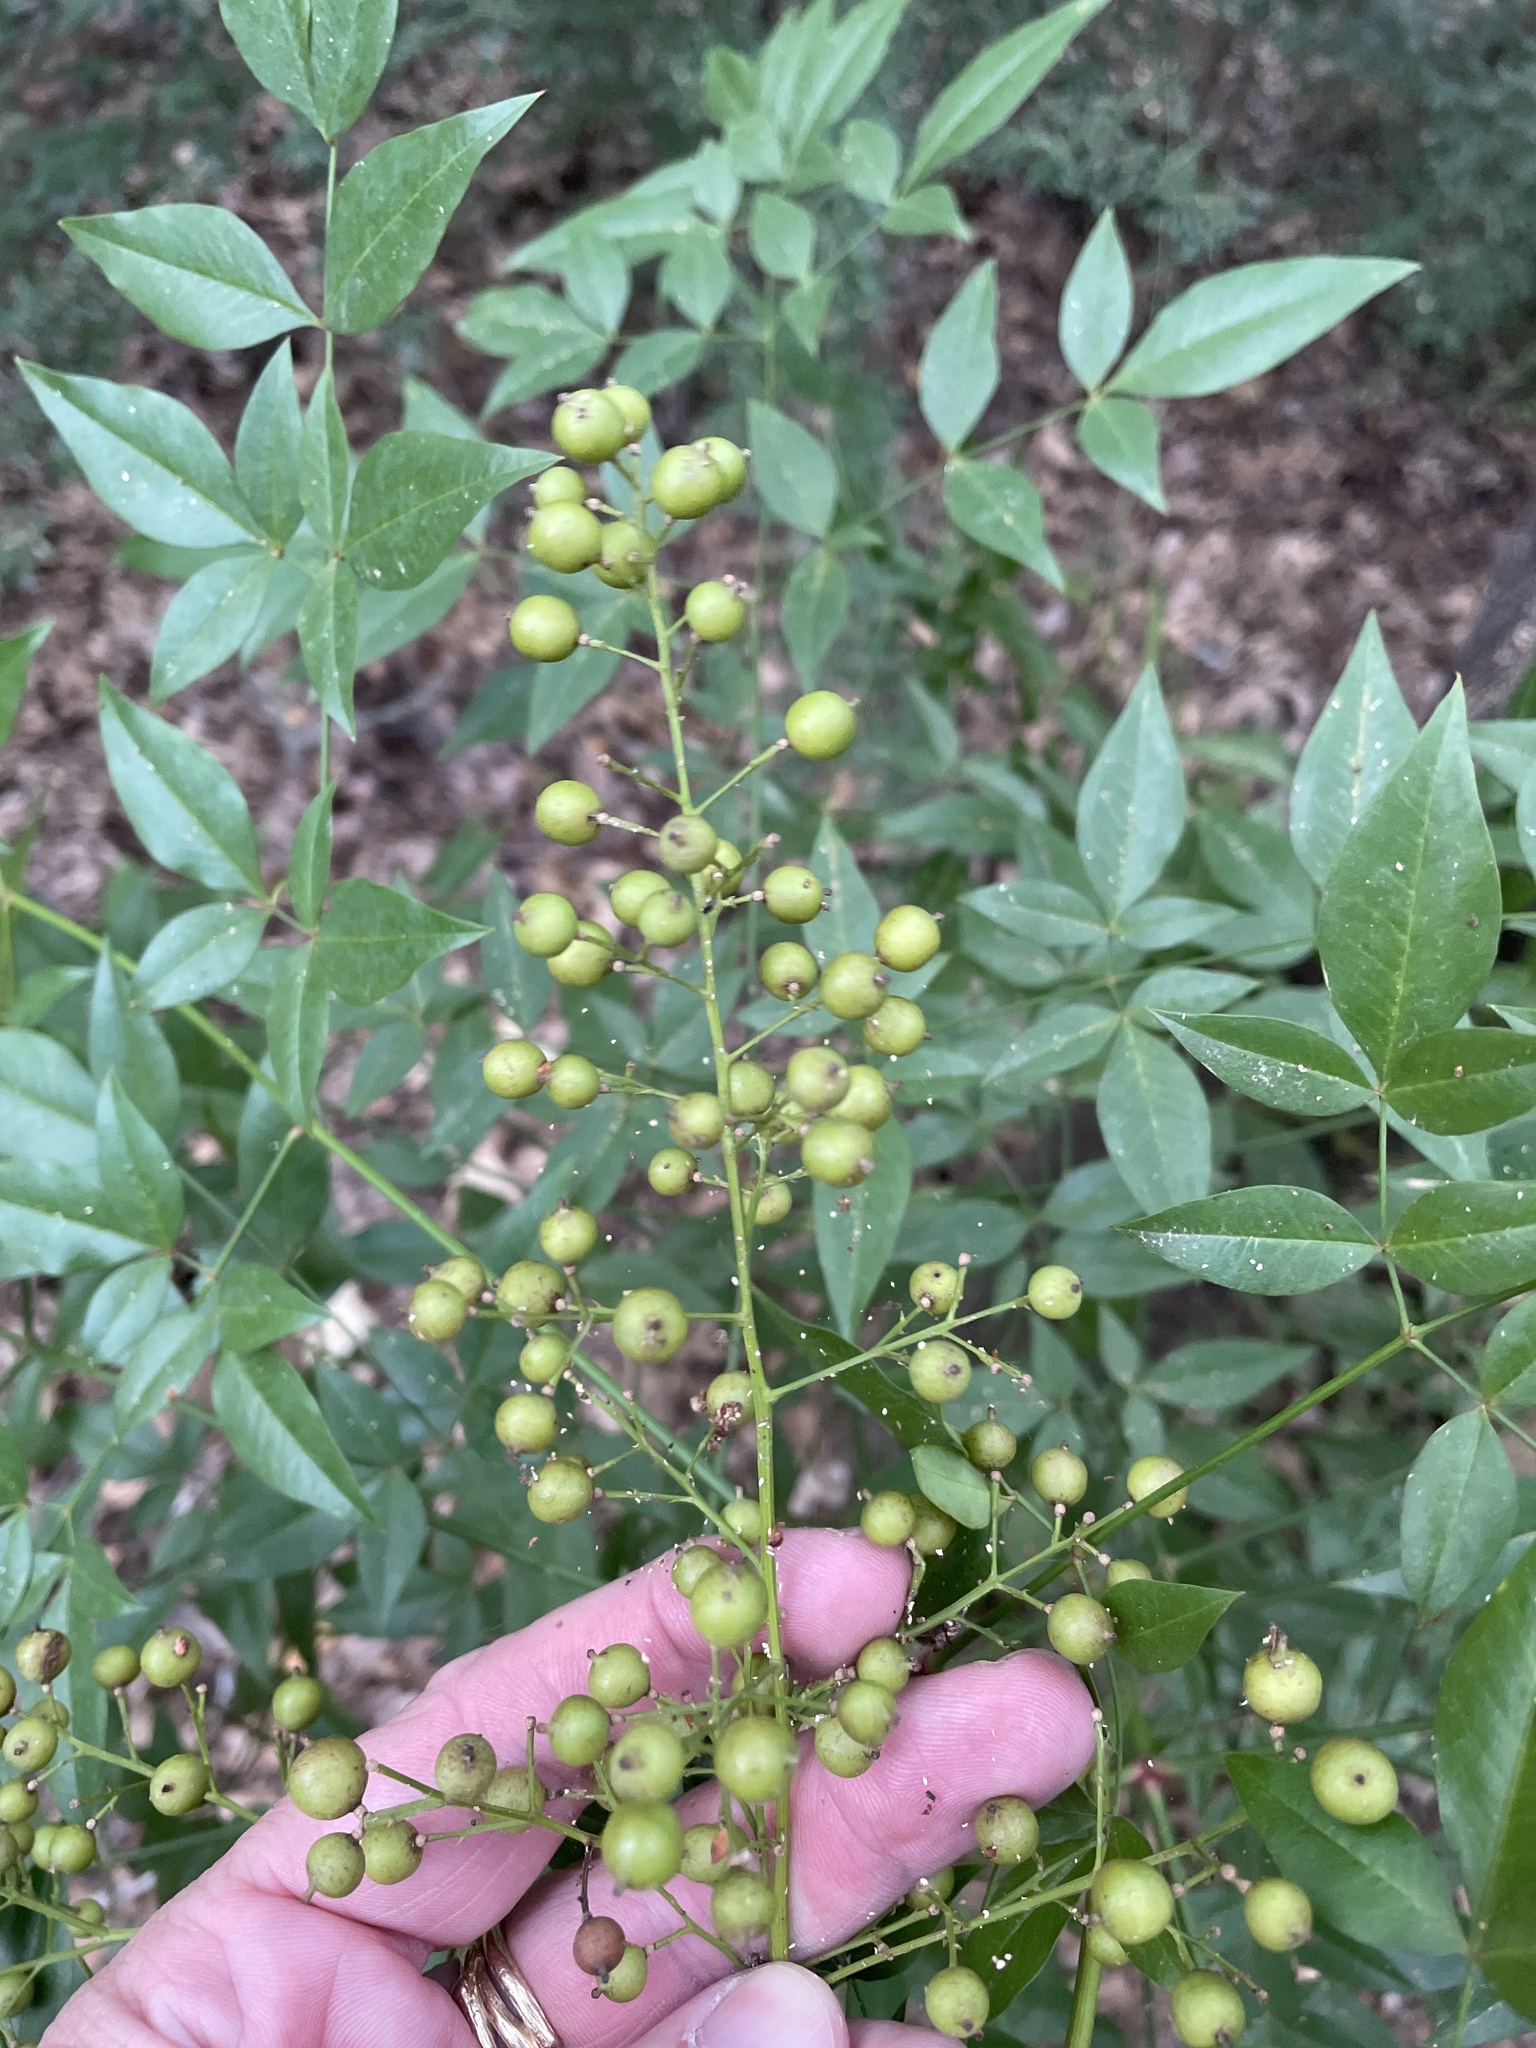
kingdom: Plantae
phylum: Tracheophyta
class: Magnoliopsida
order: Ranunculales
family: Berberidaceae
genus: Nandina
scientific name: Nandina domestica
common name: Sacred bamboo
